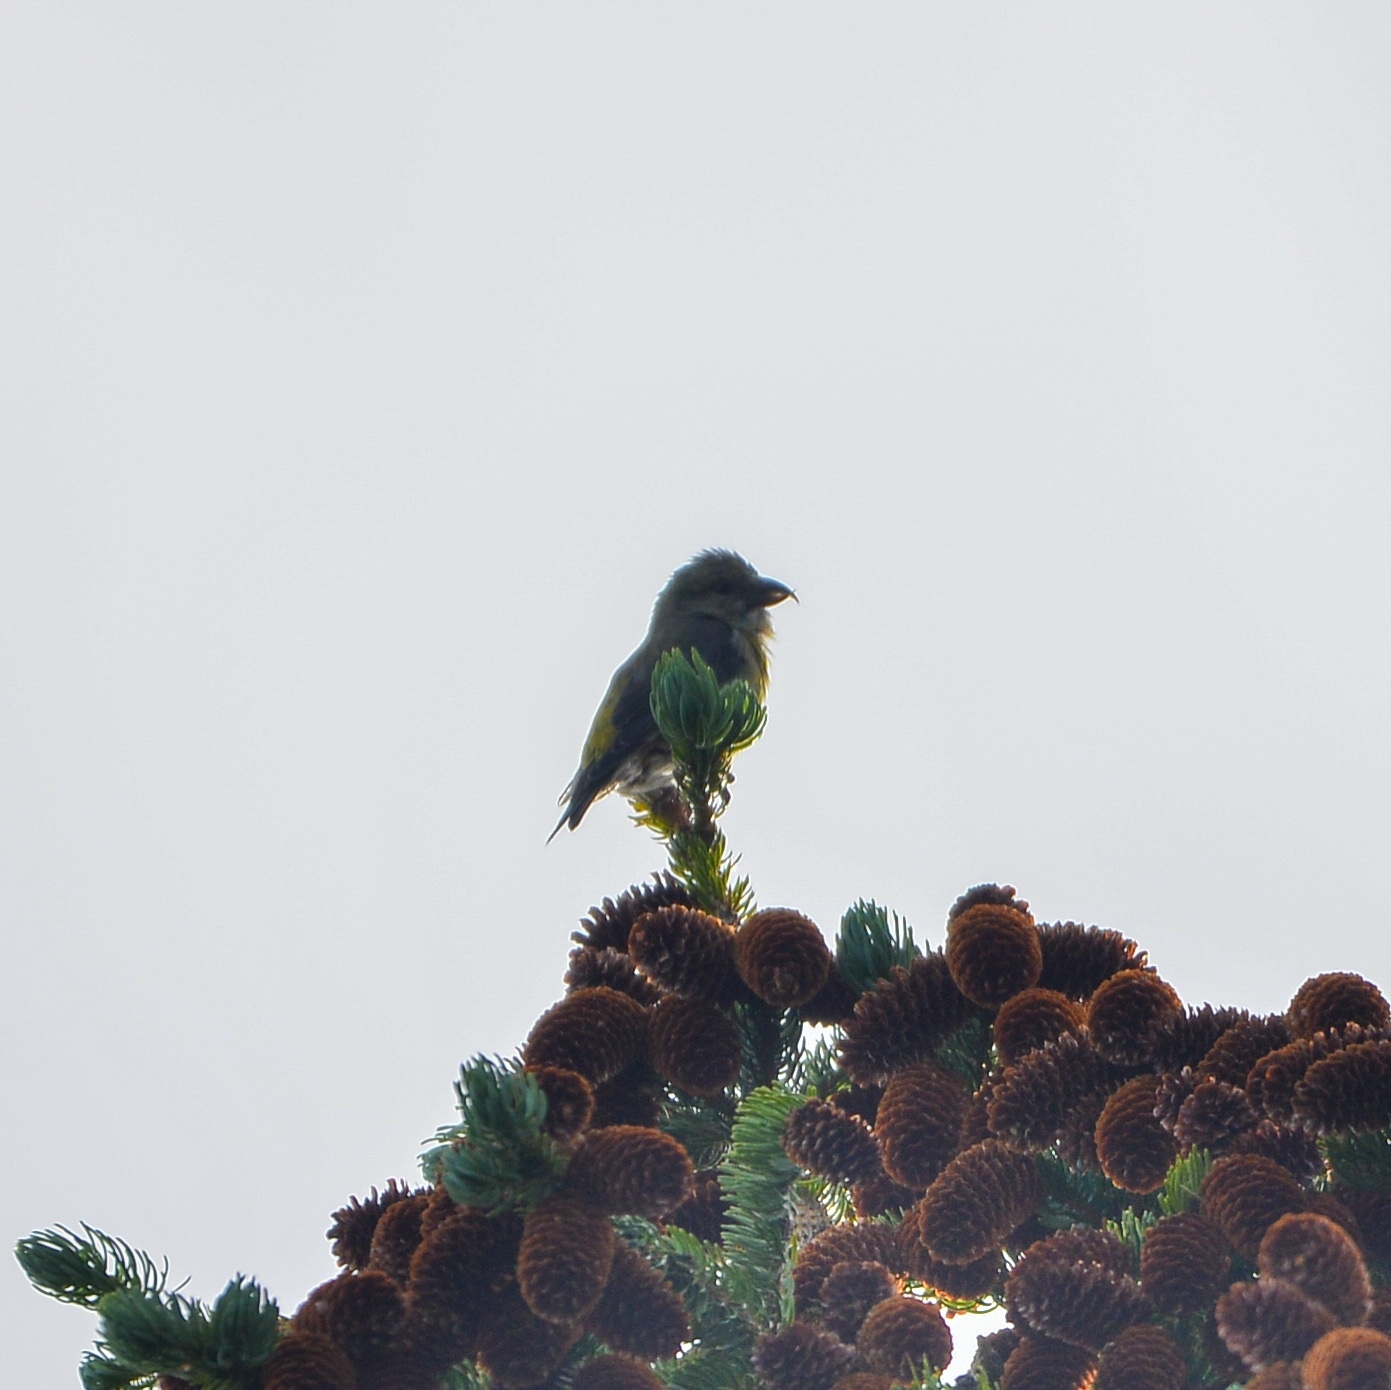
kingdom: Animalia
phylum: Chordata
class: Aves
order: Passeriformes
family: Fringillidae
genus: Loxia
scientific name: Loxia curvirostra
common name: Red crossbill
